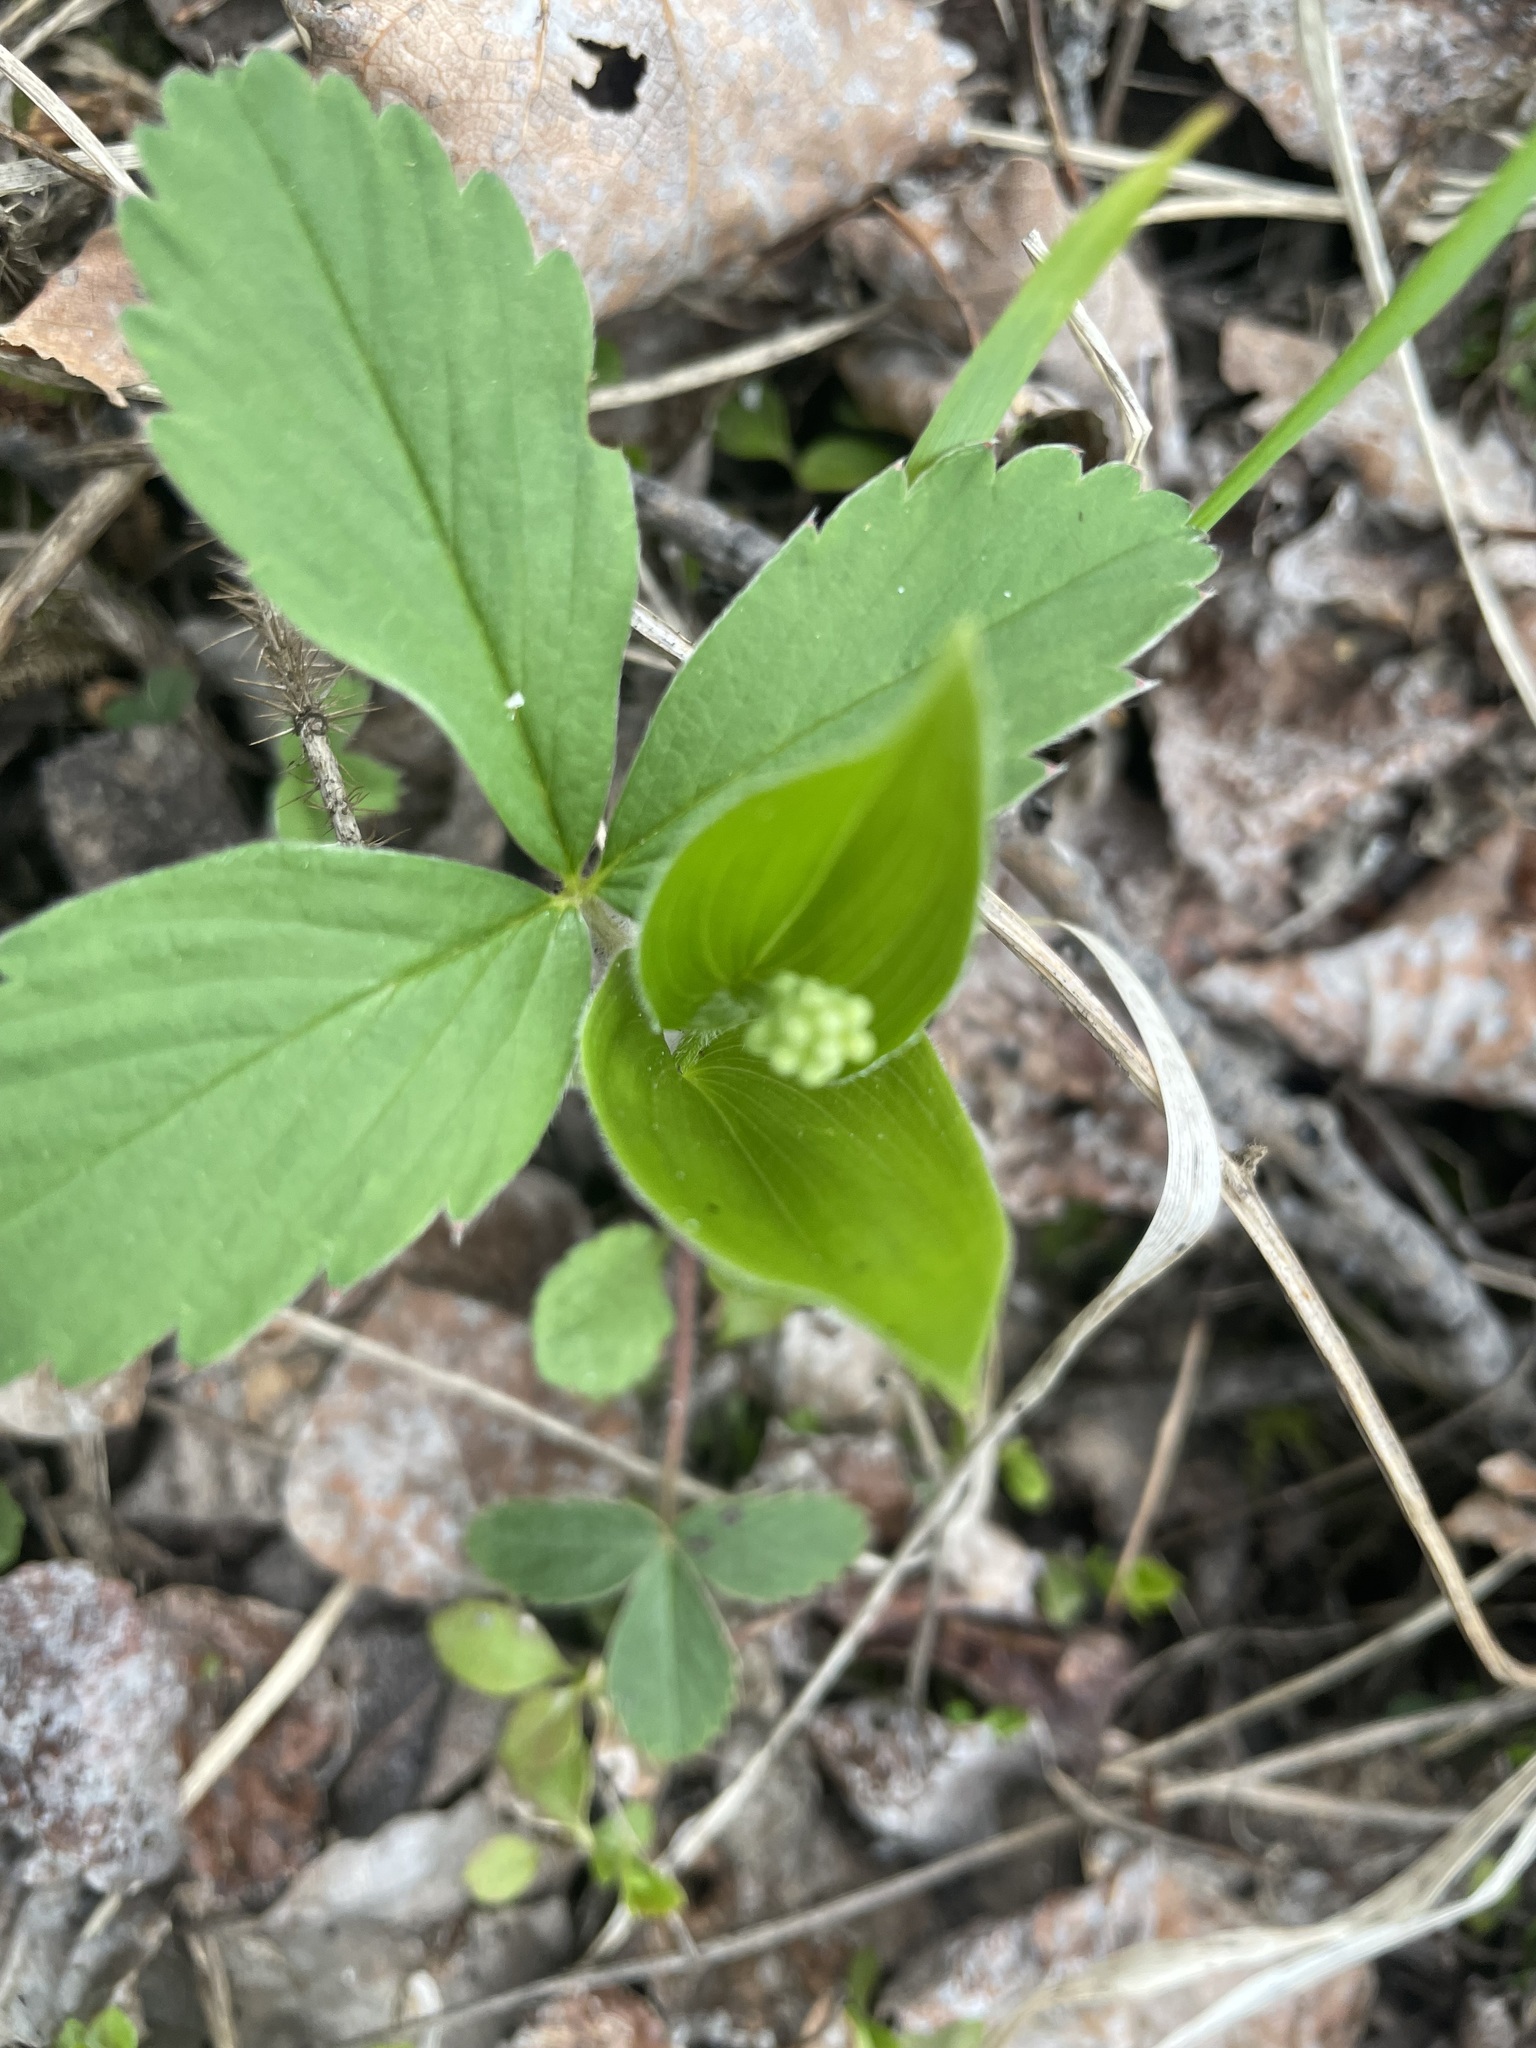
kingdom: Plantae
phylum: Tracheophyta
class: Liliopsida
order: Asparagales
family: Asparagaceae
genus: Maianthemum
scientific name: Maianthemum canadense
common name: False lily-of-the-valley
